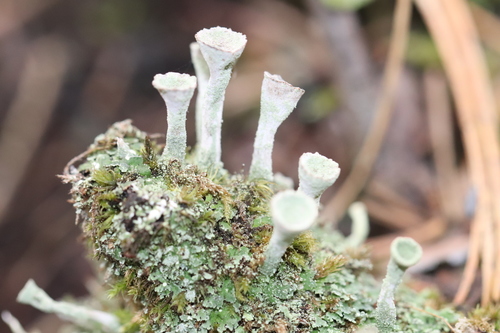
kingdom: Fungi
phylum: Ascomycota
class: Lecanoromycetes
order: Lecanorales
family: Cladoniaceae
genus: Cladonia
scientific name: Cladonia fimbriata
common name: Powdered trumpet lichen
